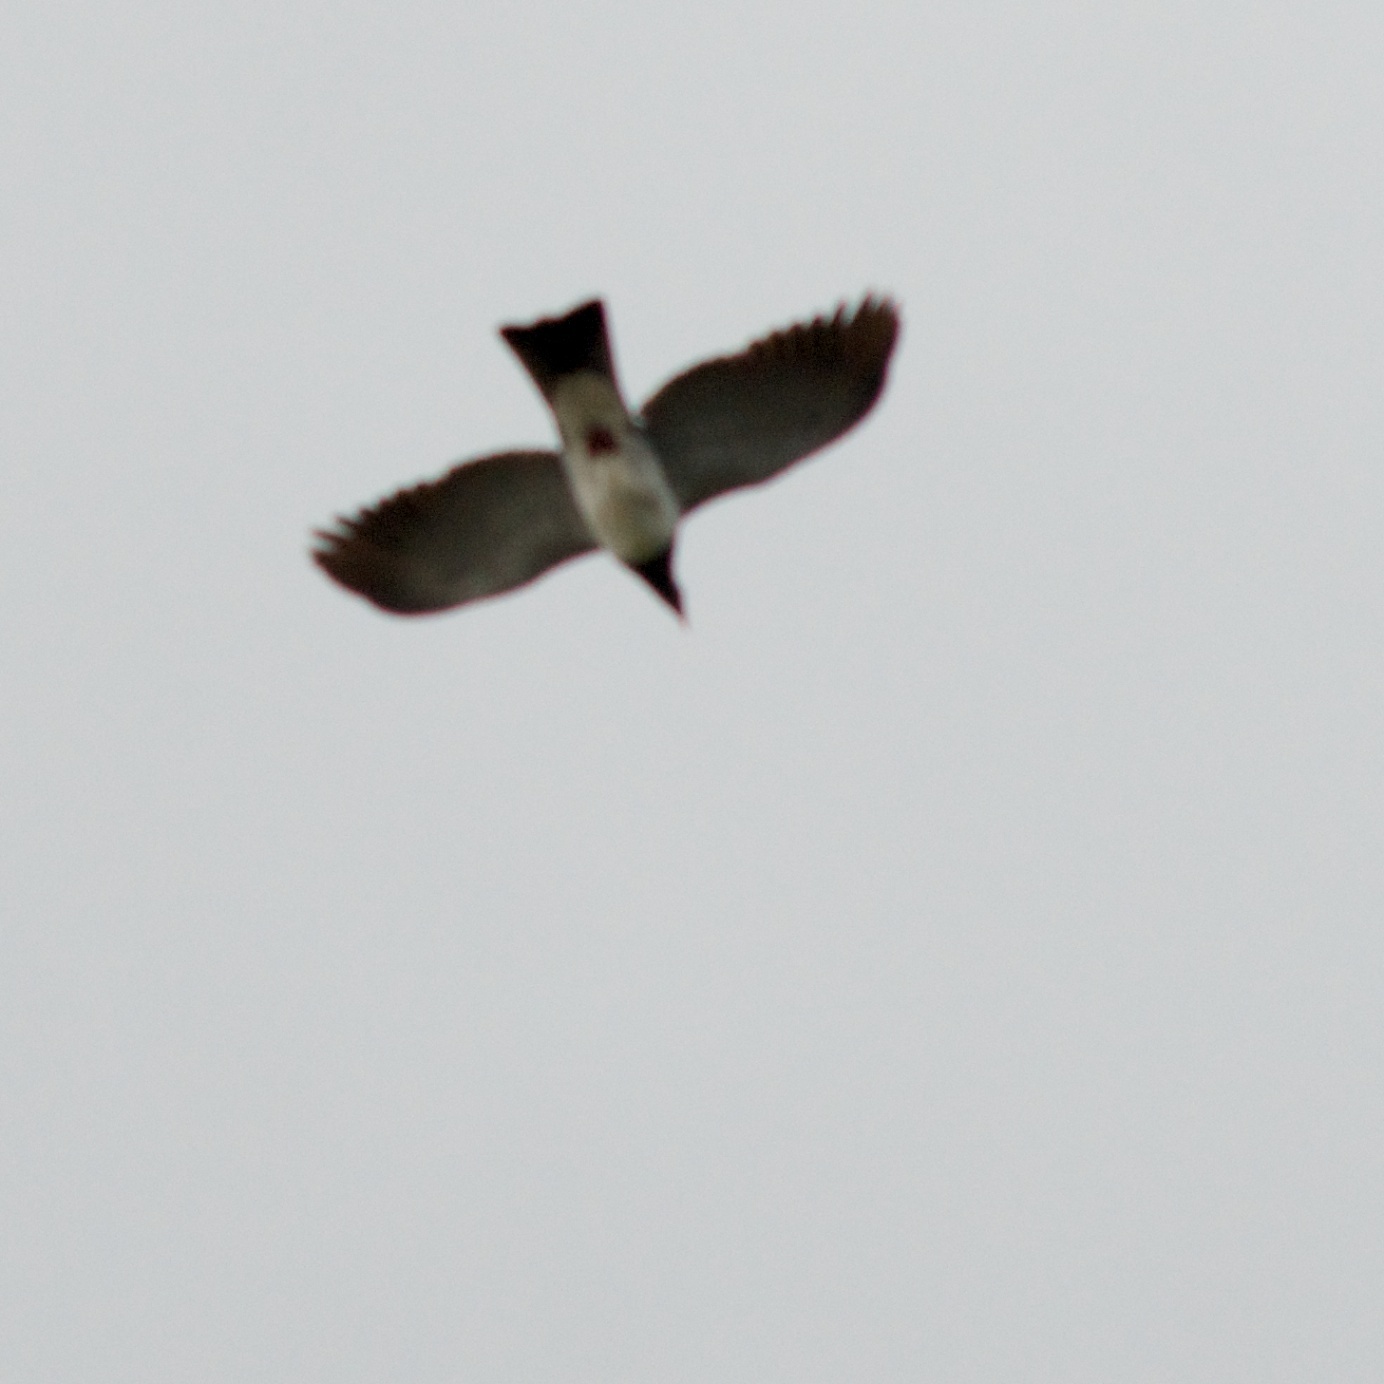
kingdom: Animalia
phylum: Chordata
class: Aves
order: Columbiformes
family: Columbidae
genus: Hemiphaga
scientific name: Hemiphaga novaeseelandiae
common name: New zealand pigeon
